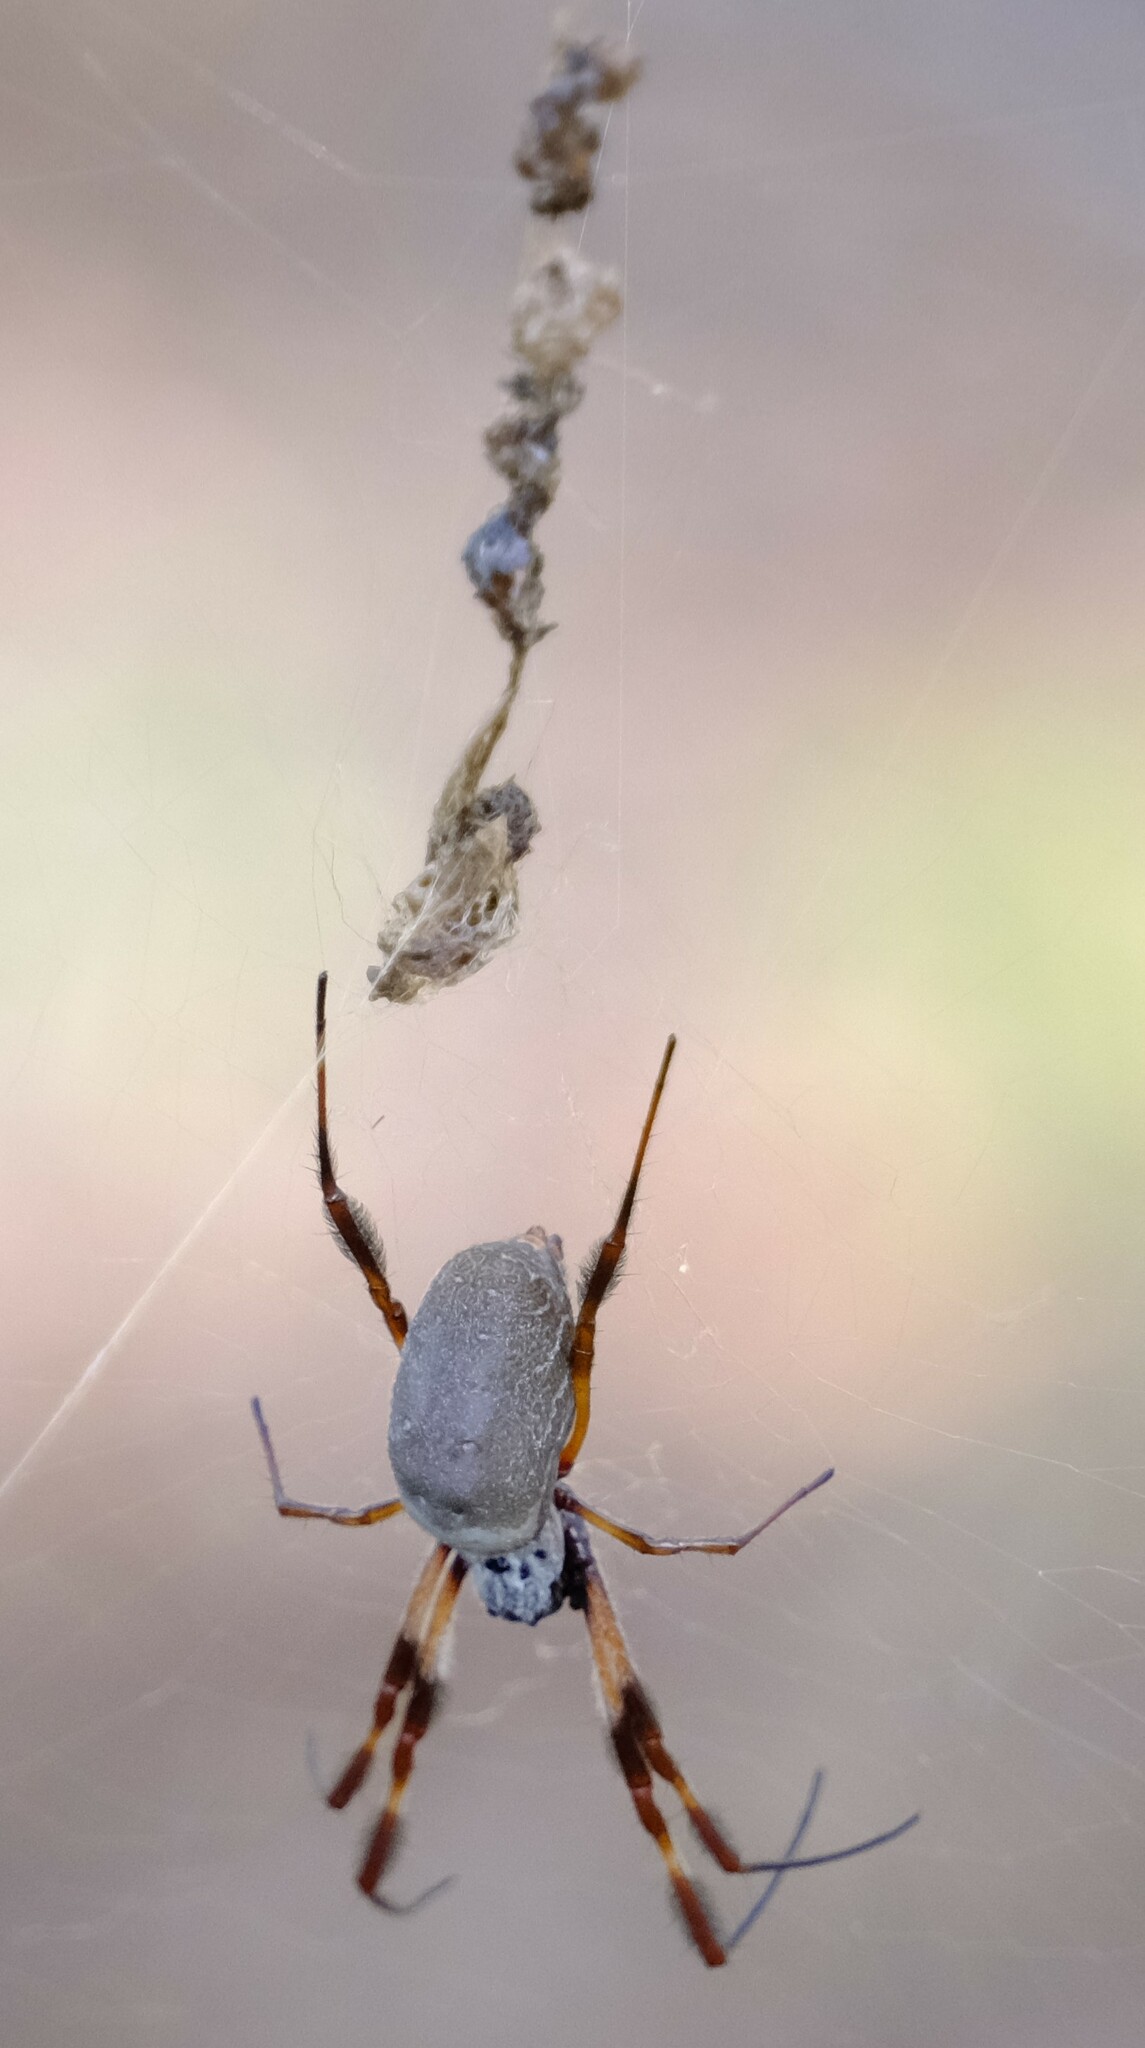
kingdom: Animalia
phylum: Arthropoda
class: Arachnida
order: Araneae
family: Araneidae
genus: Trichonephila
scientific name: Trichonephila edulis
